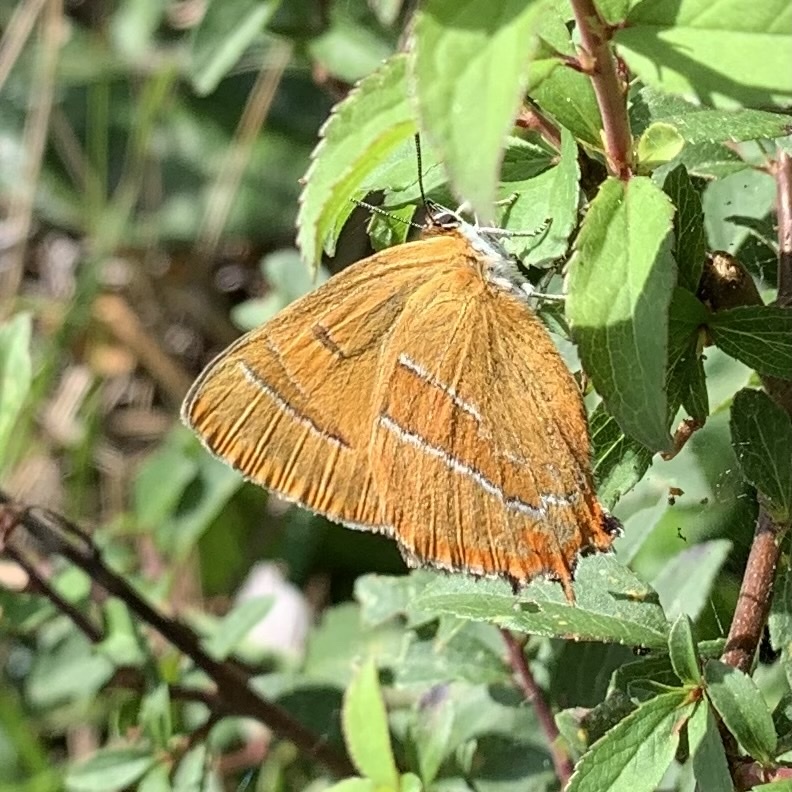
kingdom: Animalia
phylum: Arthropoda
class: Insecta
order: Lepidoptera
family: Lycaenidae
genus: Thecla
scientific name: Thecla betulae
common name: Brown hairstreak
